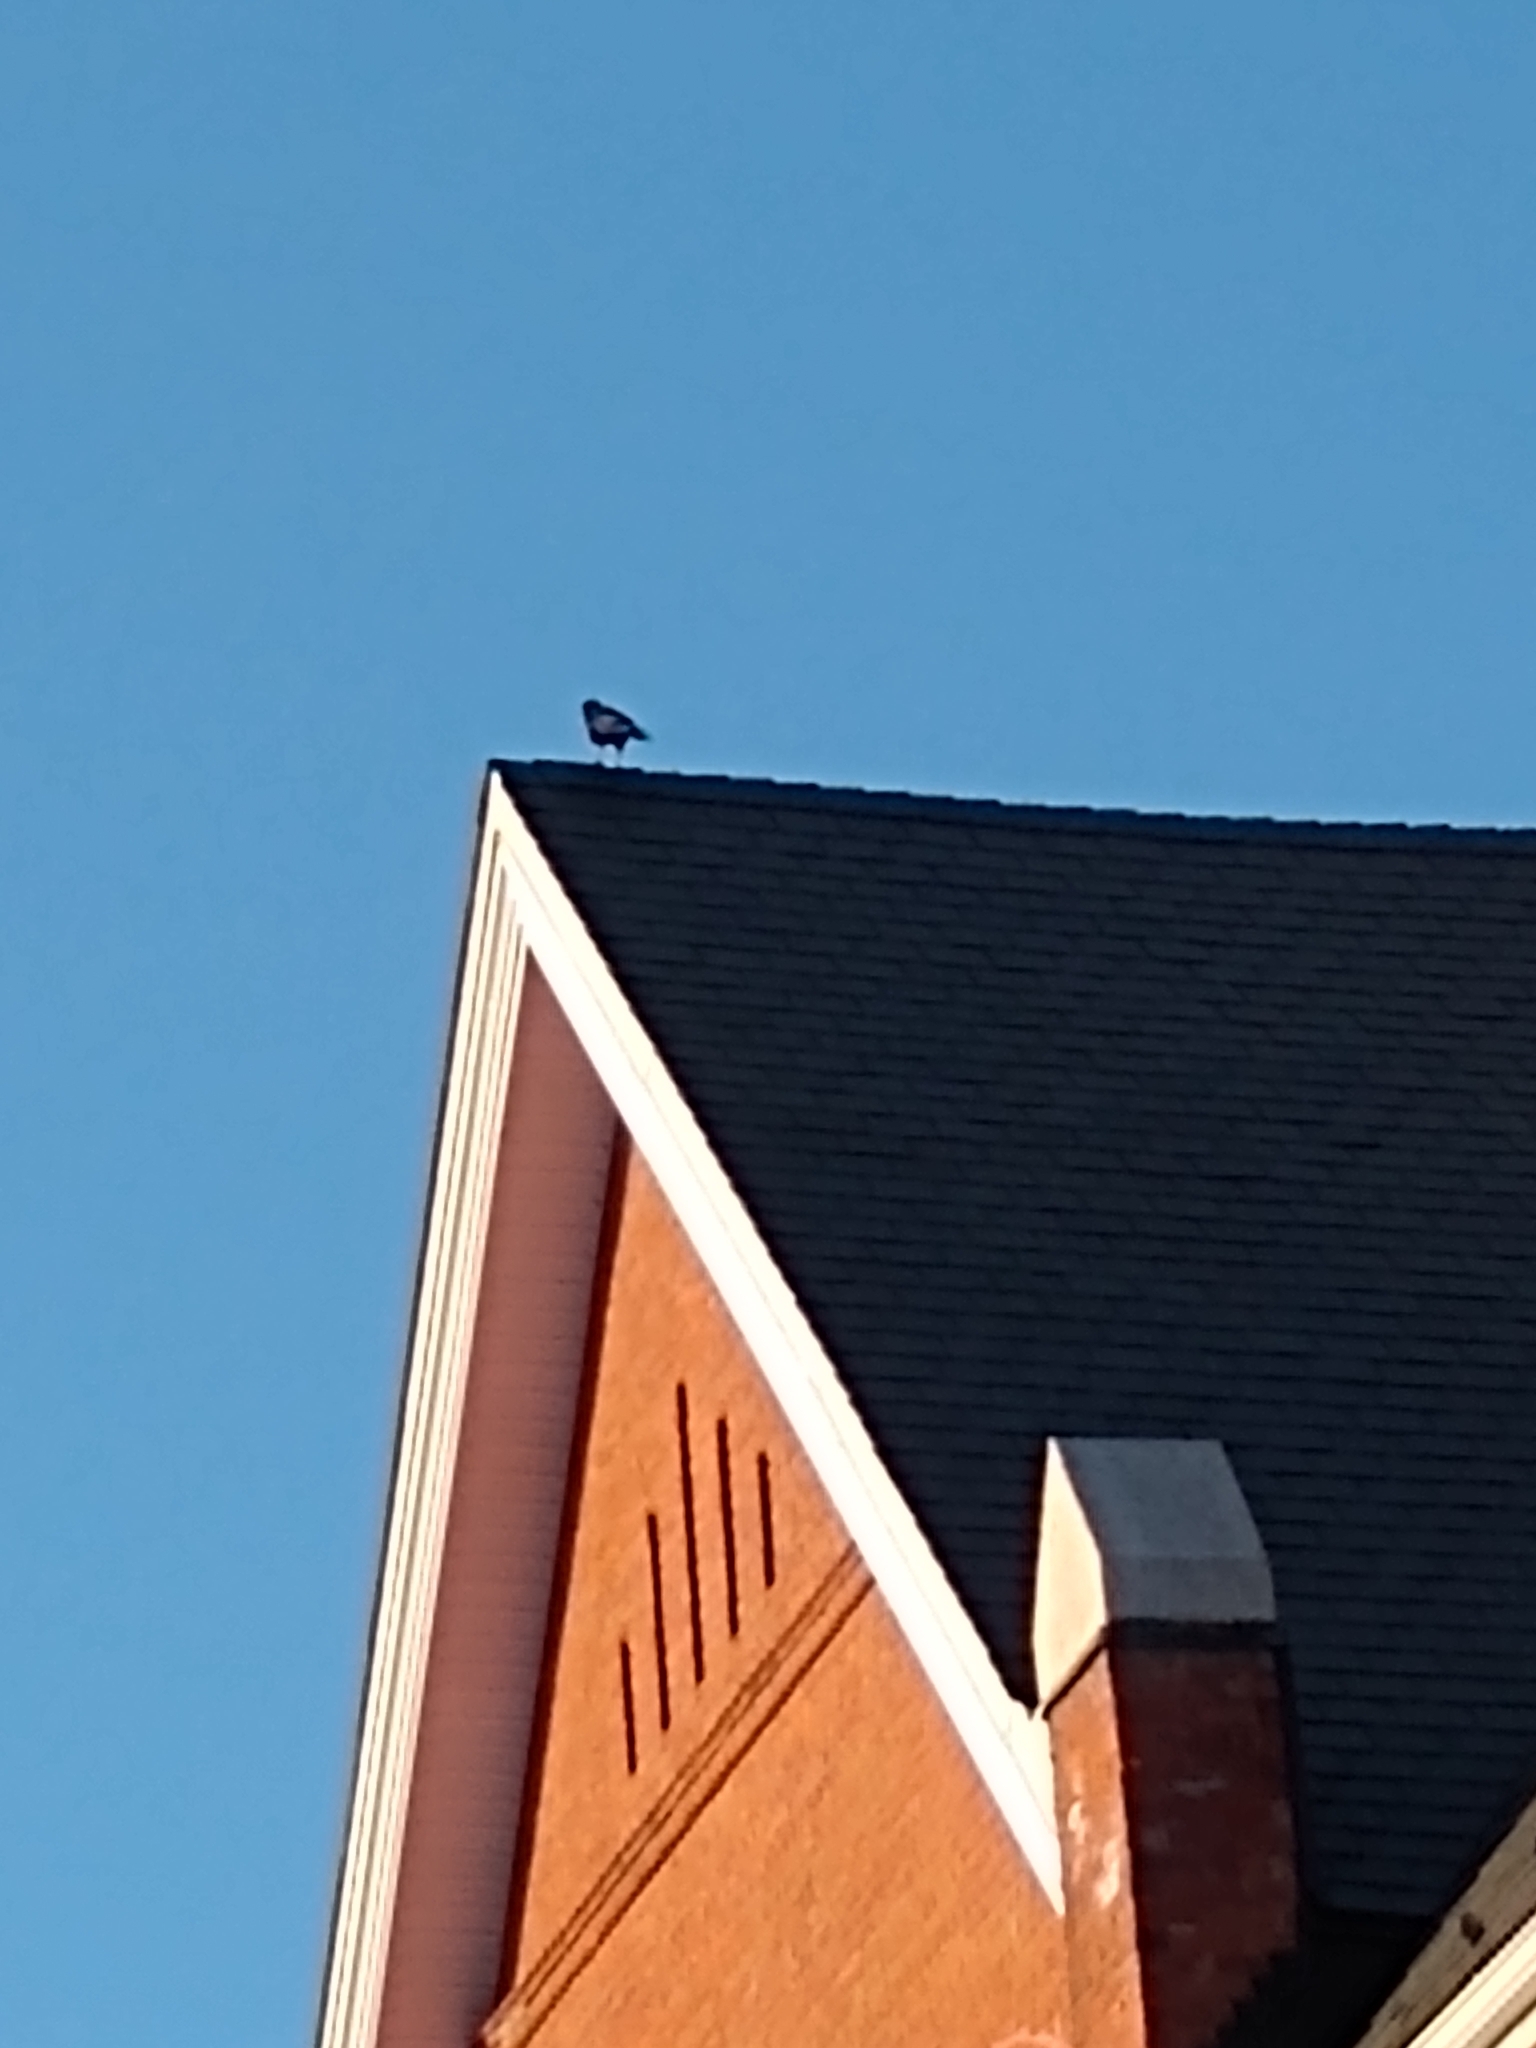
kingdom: Animalia
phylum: Chordata
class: Aves
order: Passeriformes
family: Corvidae
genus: Corvus
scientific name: Corvus brachyrhynchos
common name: American crow
